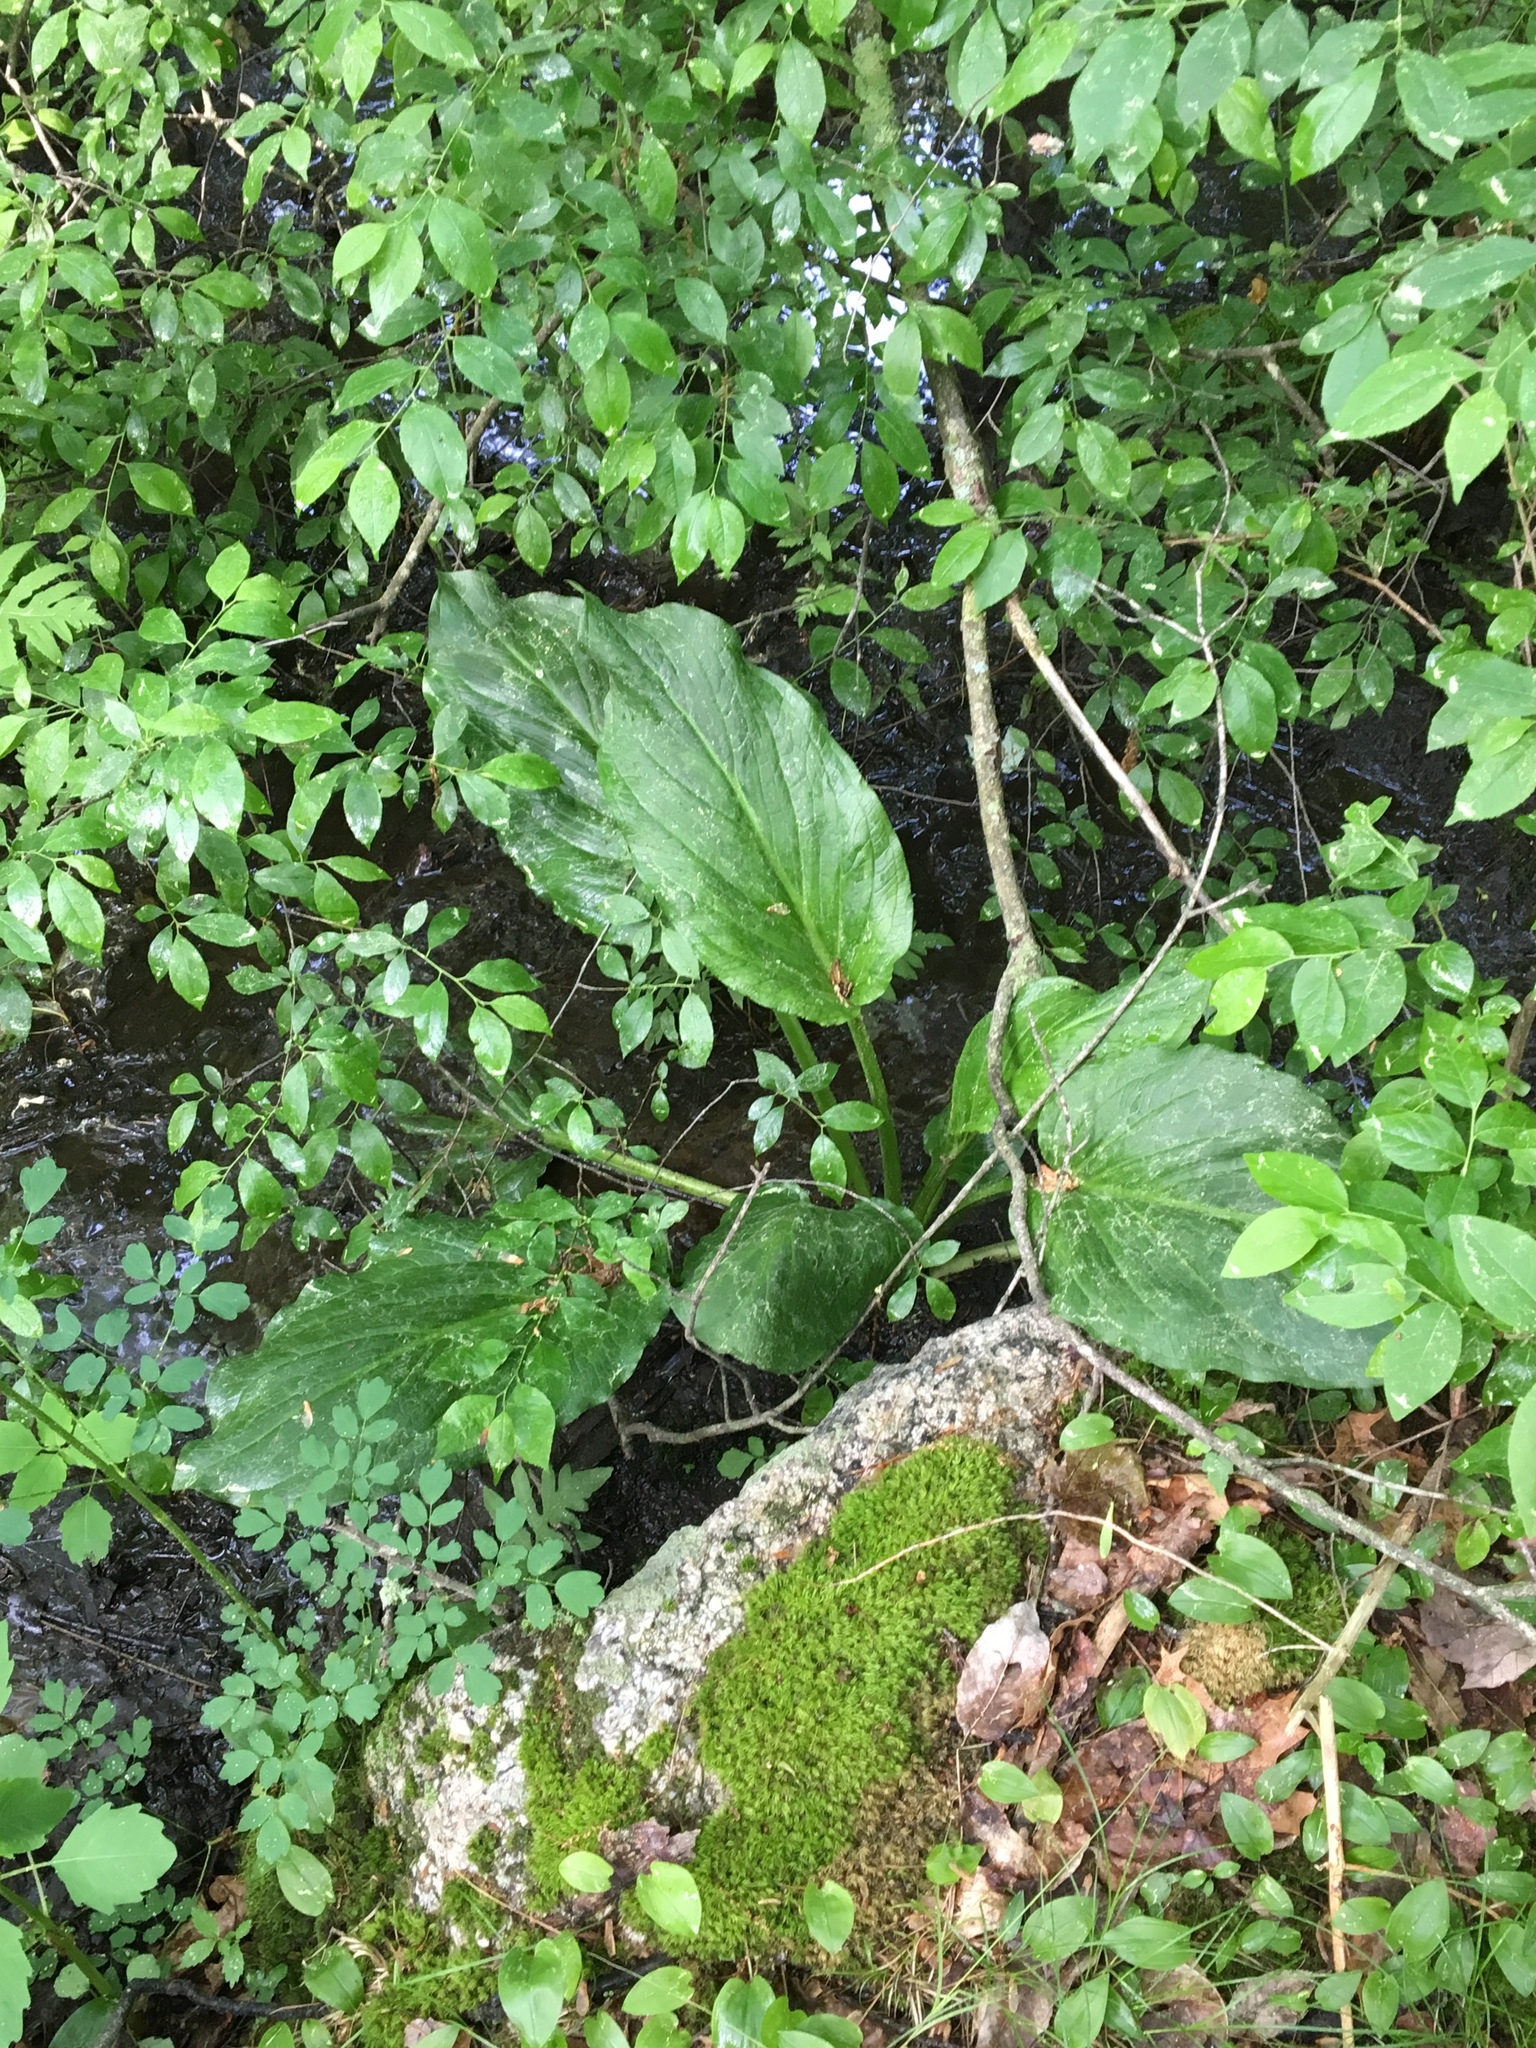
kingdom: Plantae
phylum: Tracheophyta
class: Liliopsida
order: Alismatales
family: Araceae
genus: Symplocarpus
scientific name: Symplocarpus foetidus
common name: Eastern skunk cabbage
